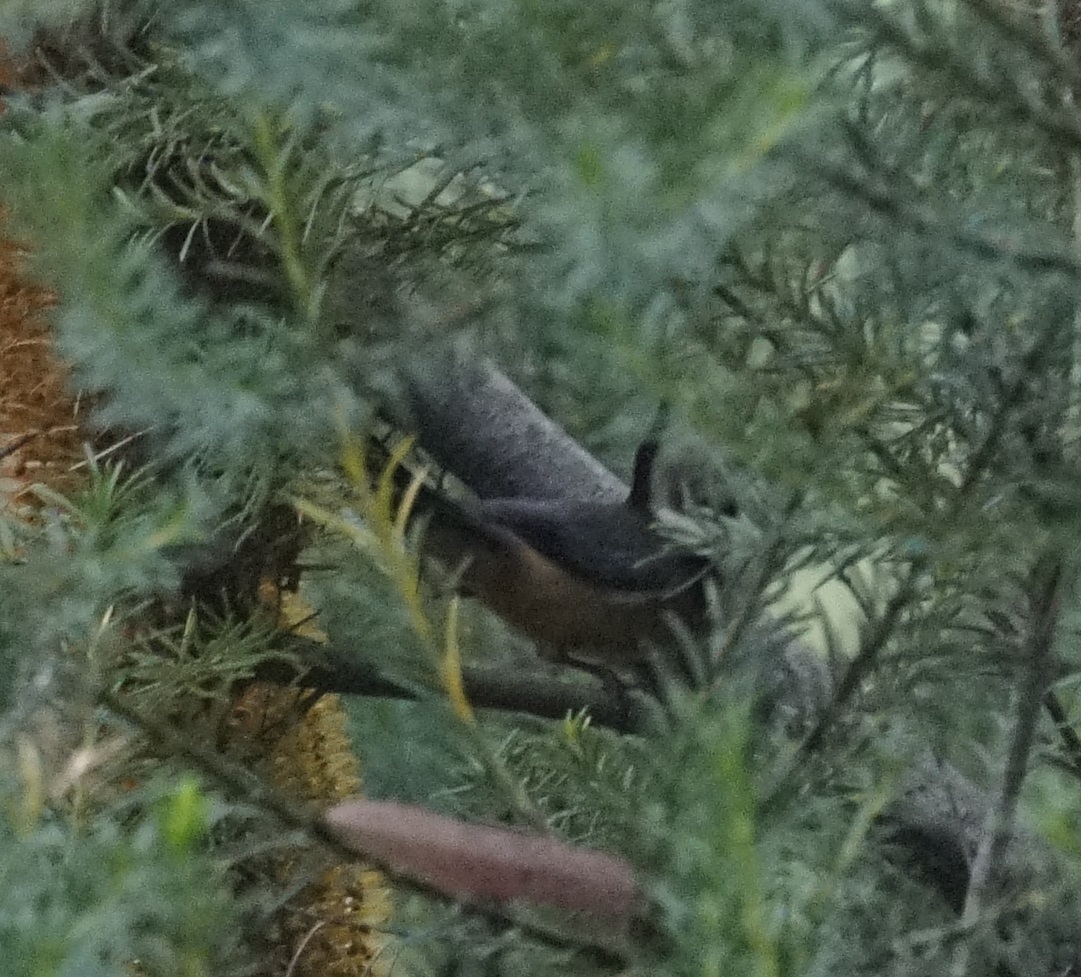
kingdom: Animalia
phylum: Chordata
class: Aves
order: Passeriformes
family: Meliphagidae
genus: Acanthorhynchus
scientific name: Acanthorhynchus tenuirostris
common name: Eastern spinebill
